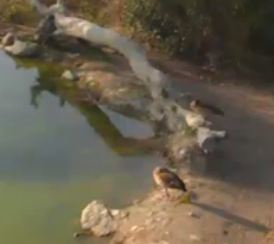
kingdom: Animalia
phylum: Chordata
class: Aves
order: Anseriformes
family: Anatidae
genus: Alopochen
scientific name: Alopochen aegyptiaca
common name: Egyptian goose
